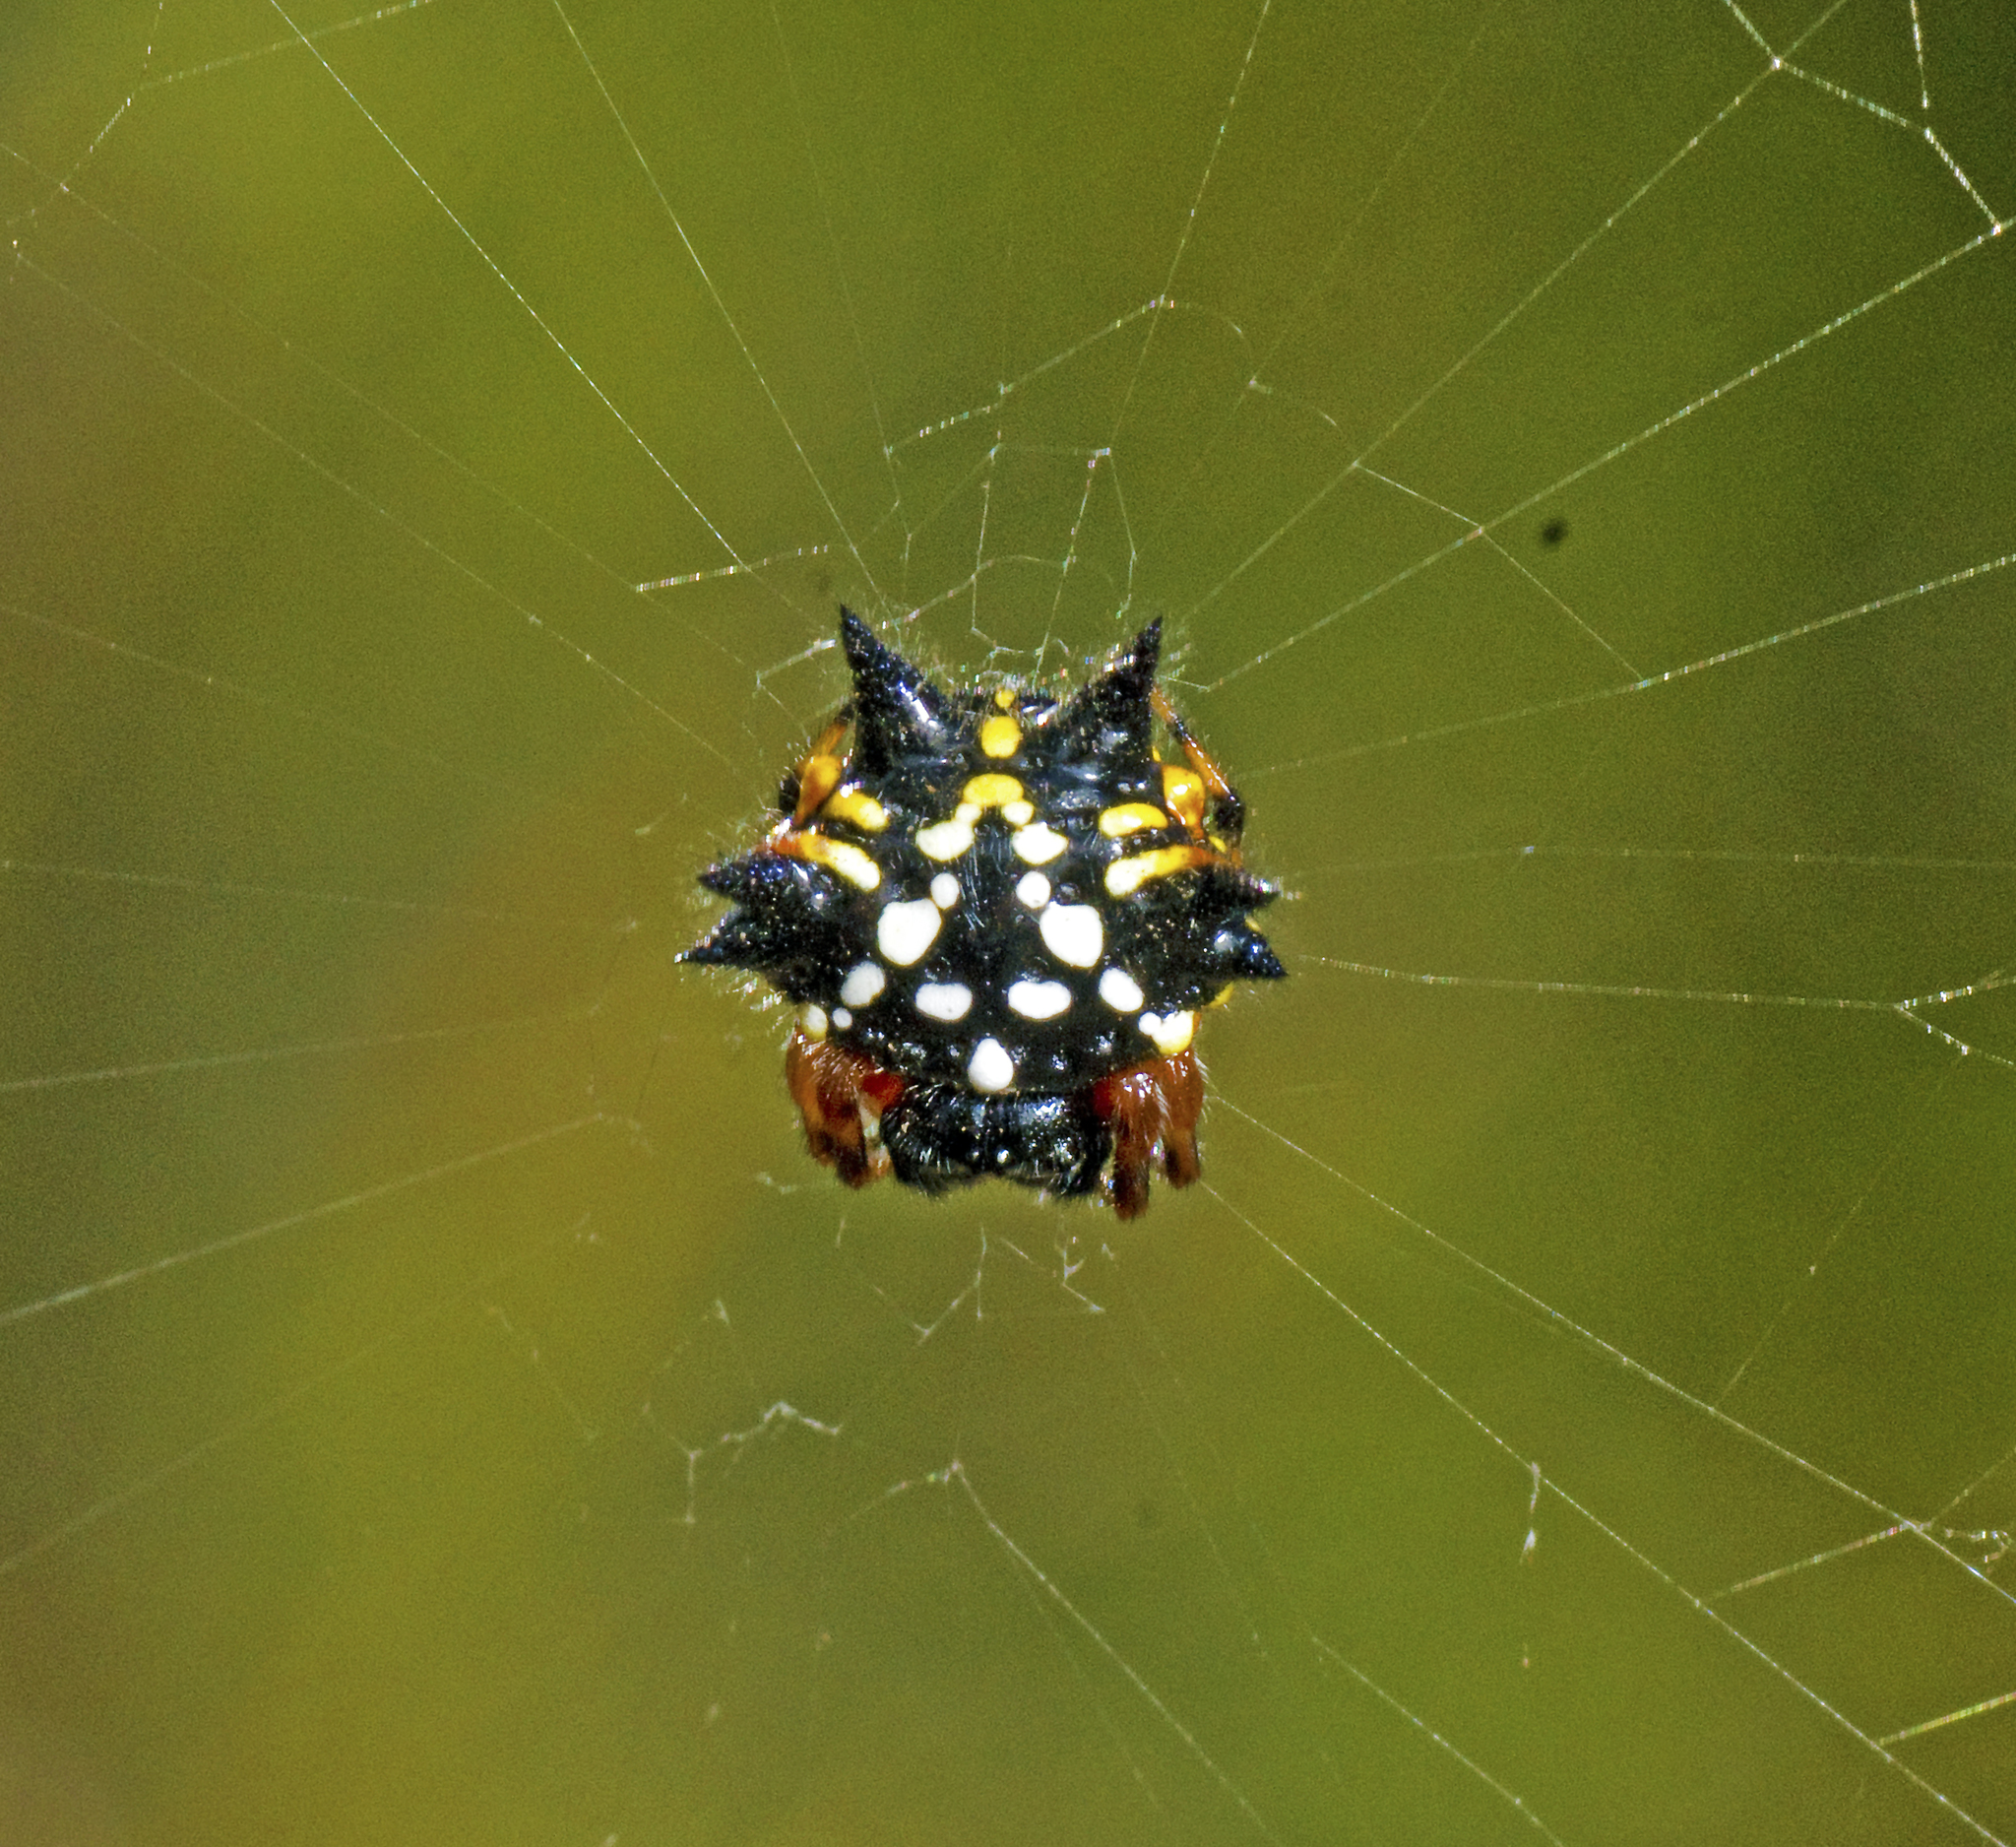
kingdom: Animalia
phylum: Arthropoda
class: Arachnida
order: Araneae
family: Araneidae
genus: Austracantha
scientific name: Austracantha minax
